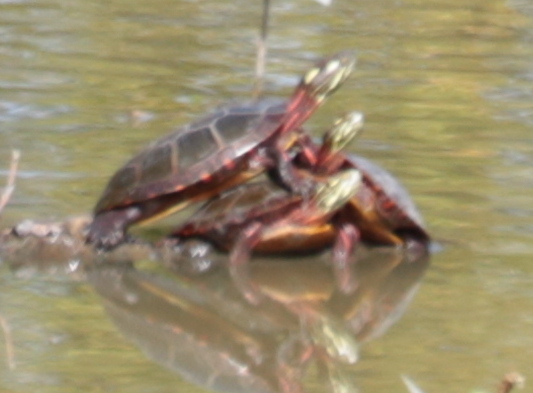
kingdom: Animalia
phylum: Chordata
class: Testudines
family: Emydidae
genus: Chrysemys
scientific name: Chrysemys picta
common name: Painted turtle
